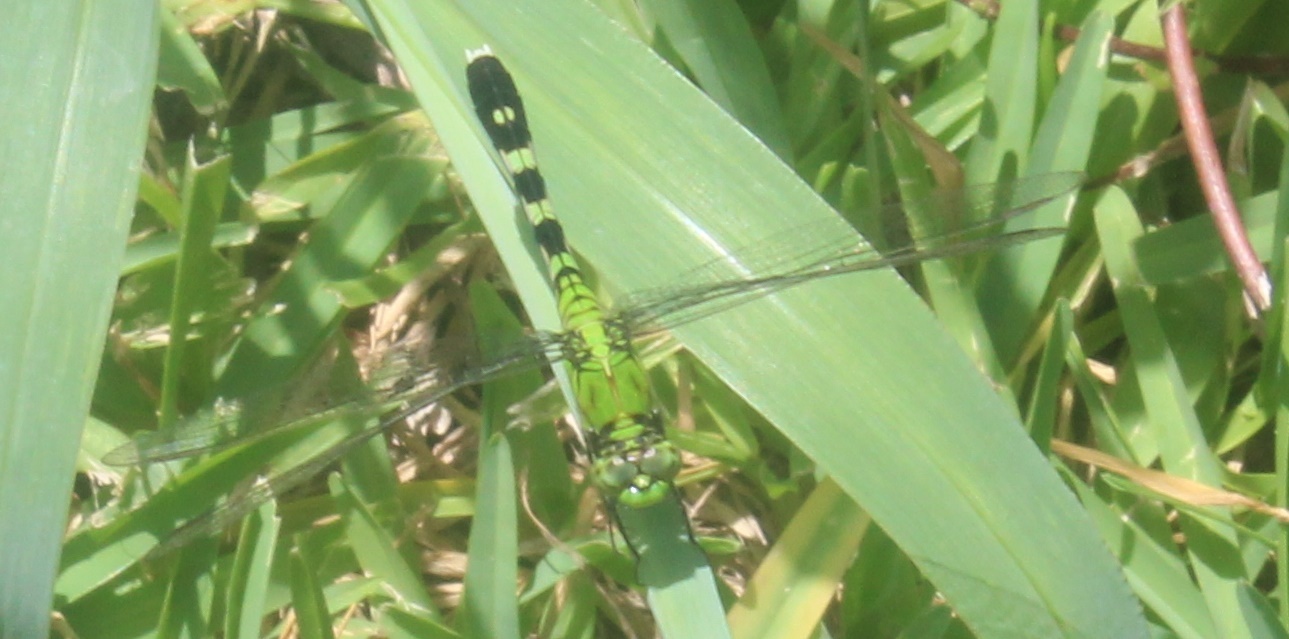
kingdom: Animalia
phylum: Arthropoda
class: Insecta
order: Odonata
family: Libellulidae
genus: Erythemis
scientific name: Erythemis simplicicollis
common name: Eastern pondhawk
